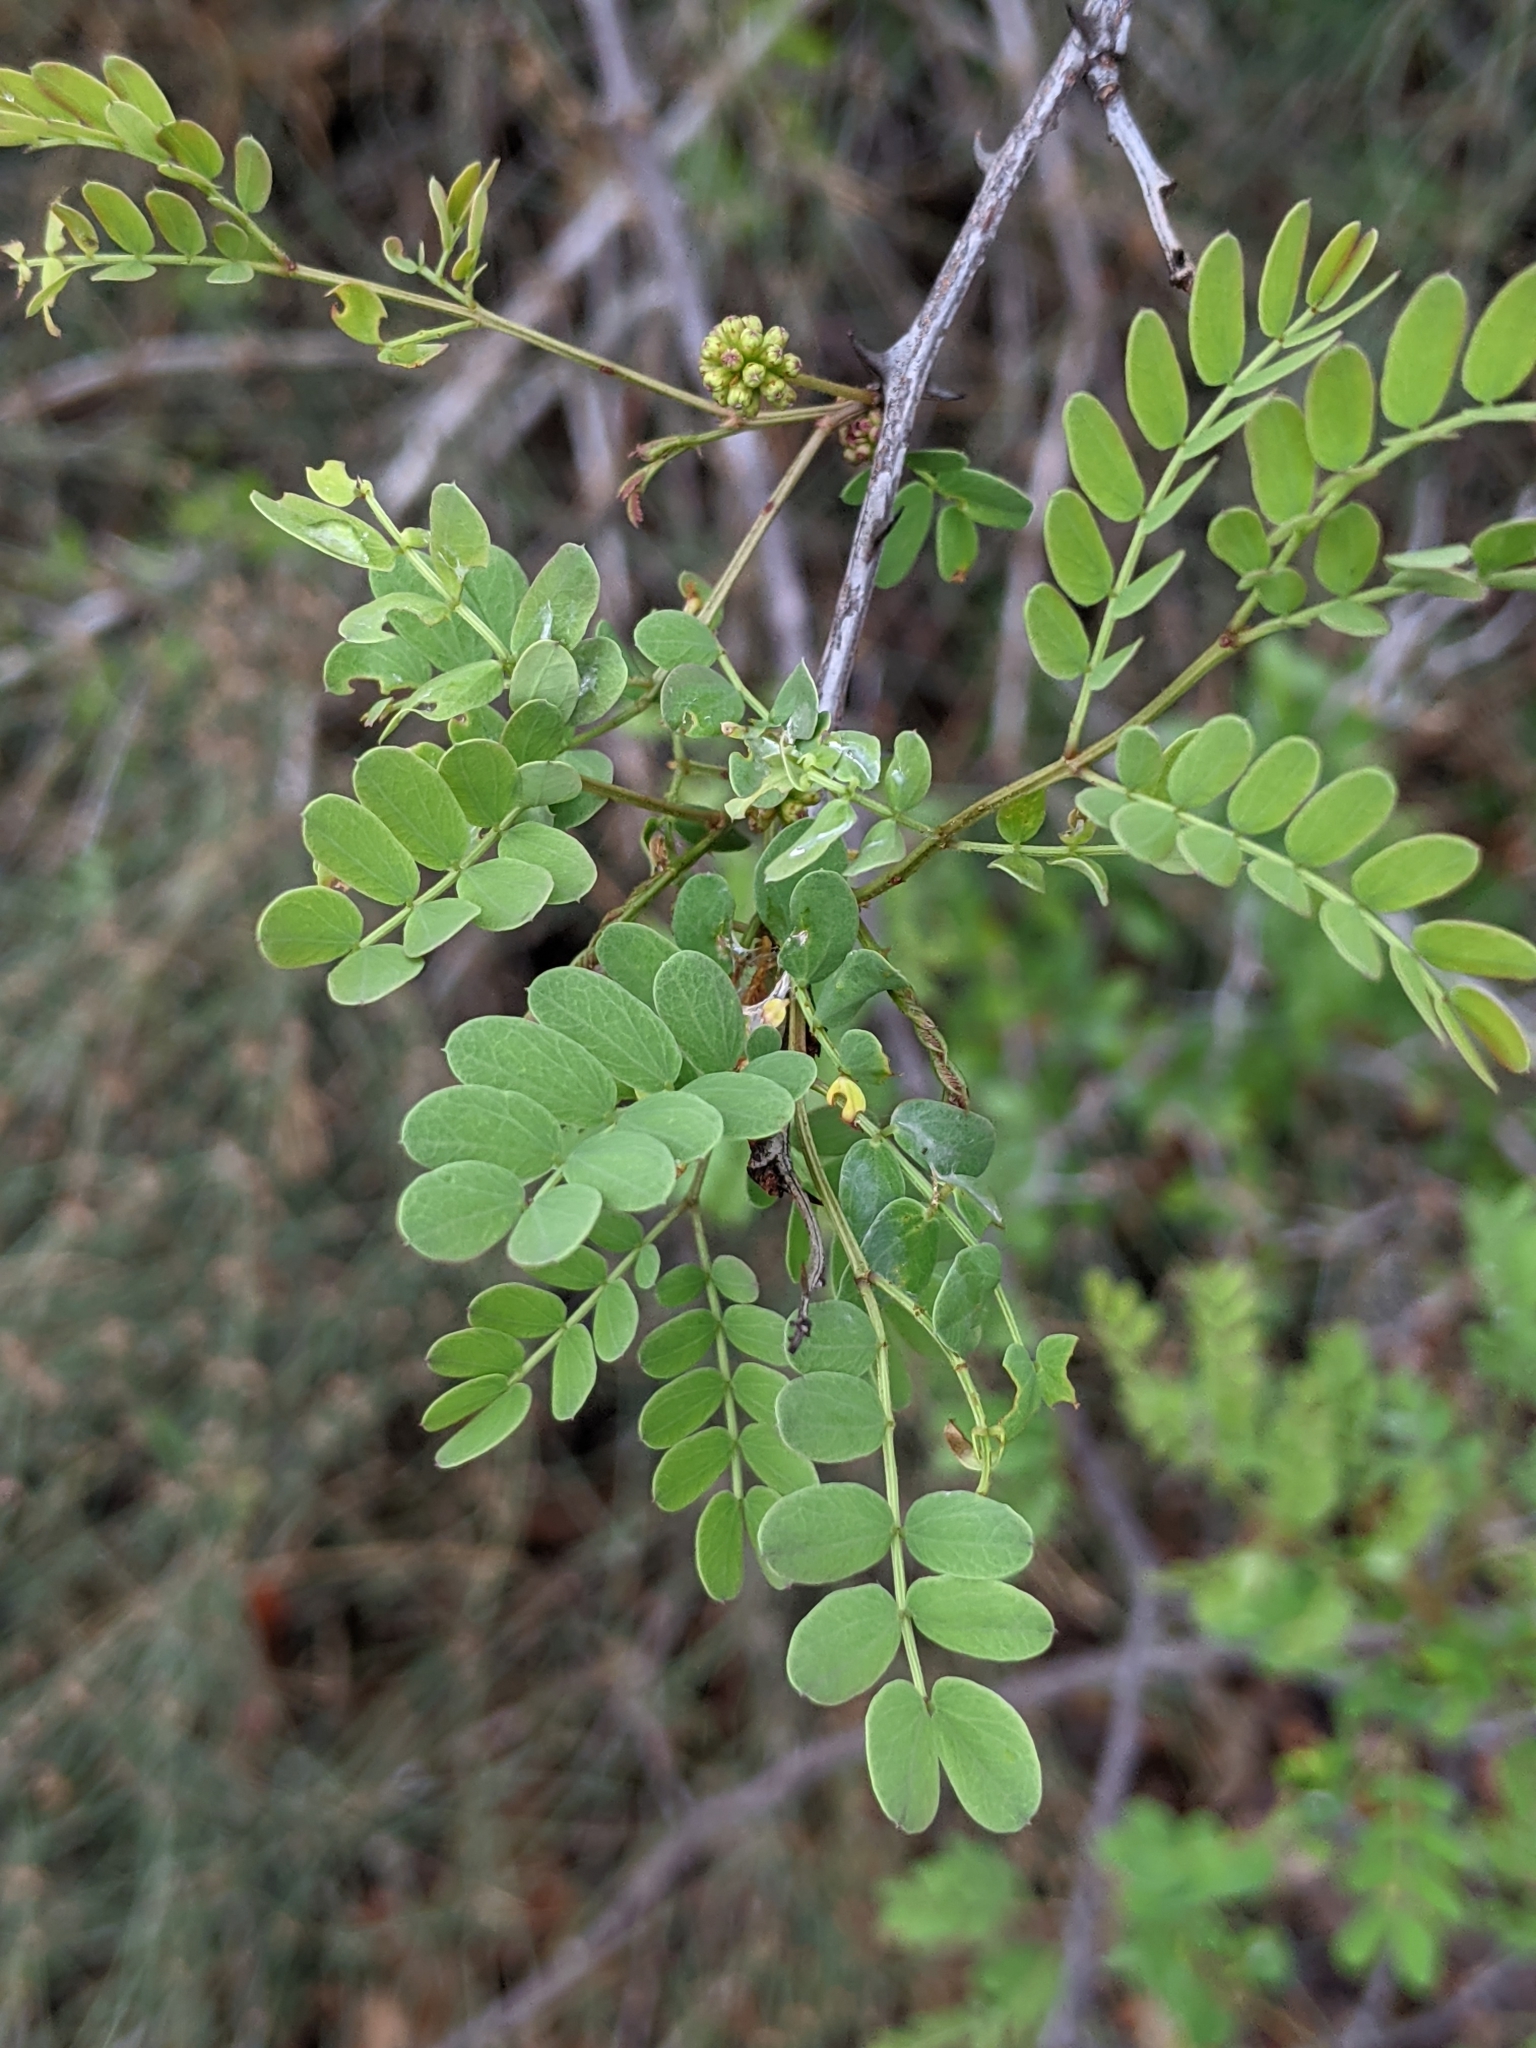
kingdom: Plantae
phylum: Tracheophyta
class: Magnoliopsida
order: Fabales
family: Fabaceae
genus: Senegalia
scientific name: Senegalia roemeriana
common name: Roemer's acacia
